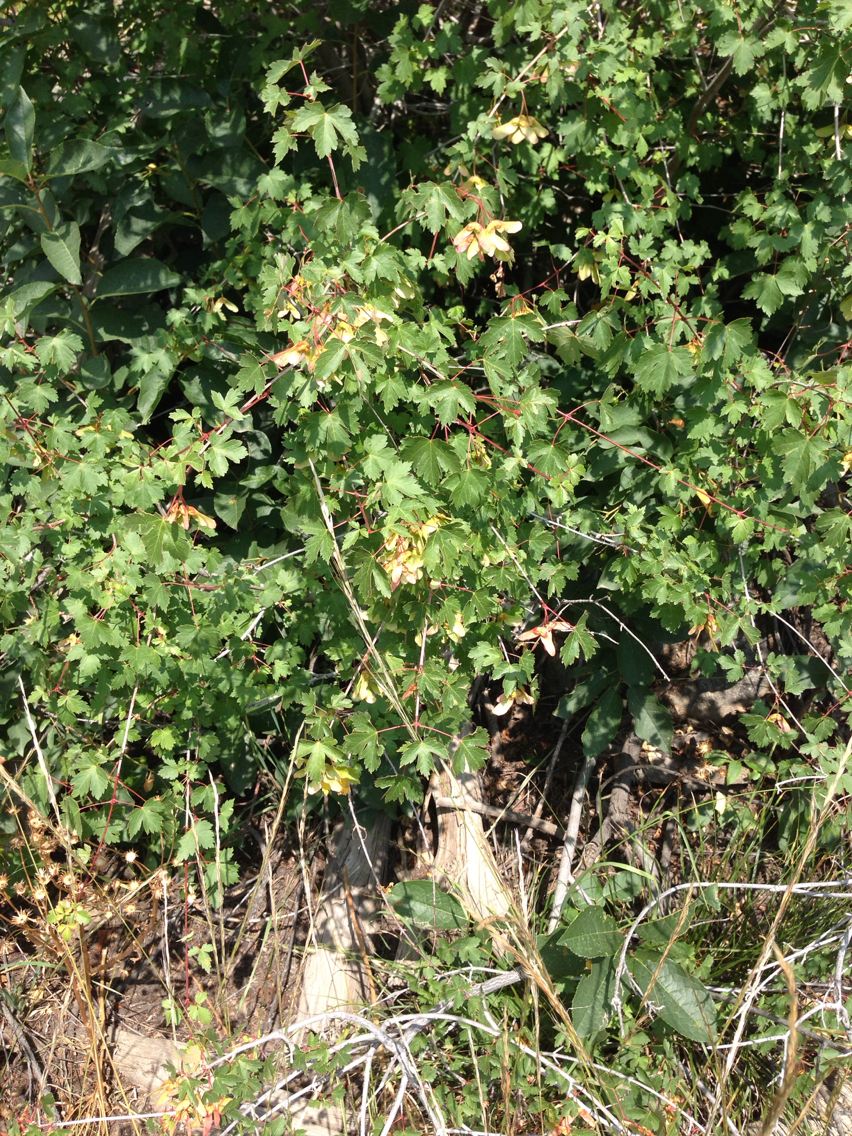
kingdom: Plantae
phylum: Tracheophyta
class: Magnoliopsida
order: Sapindales
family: Sapindaceae
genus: Acer
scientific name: Acer glabrum
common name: Rocky mountain maple
